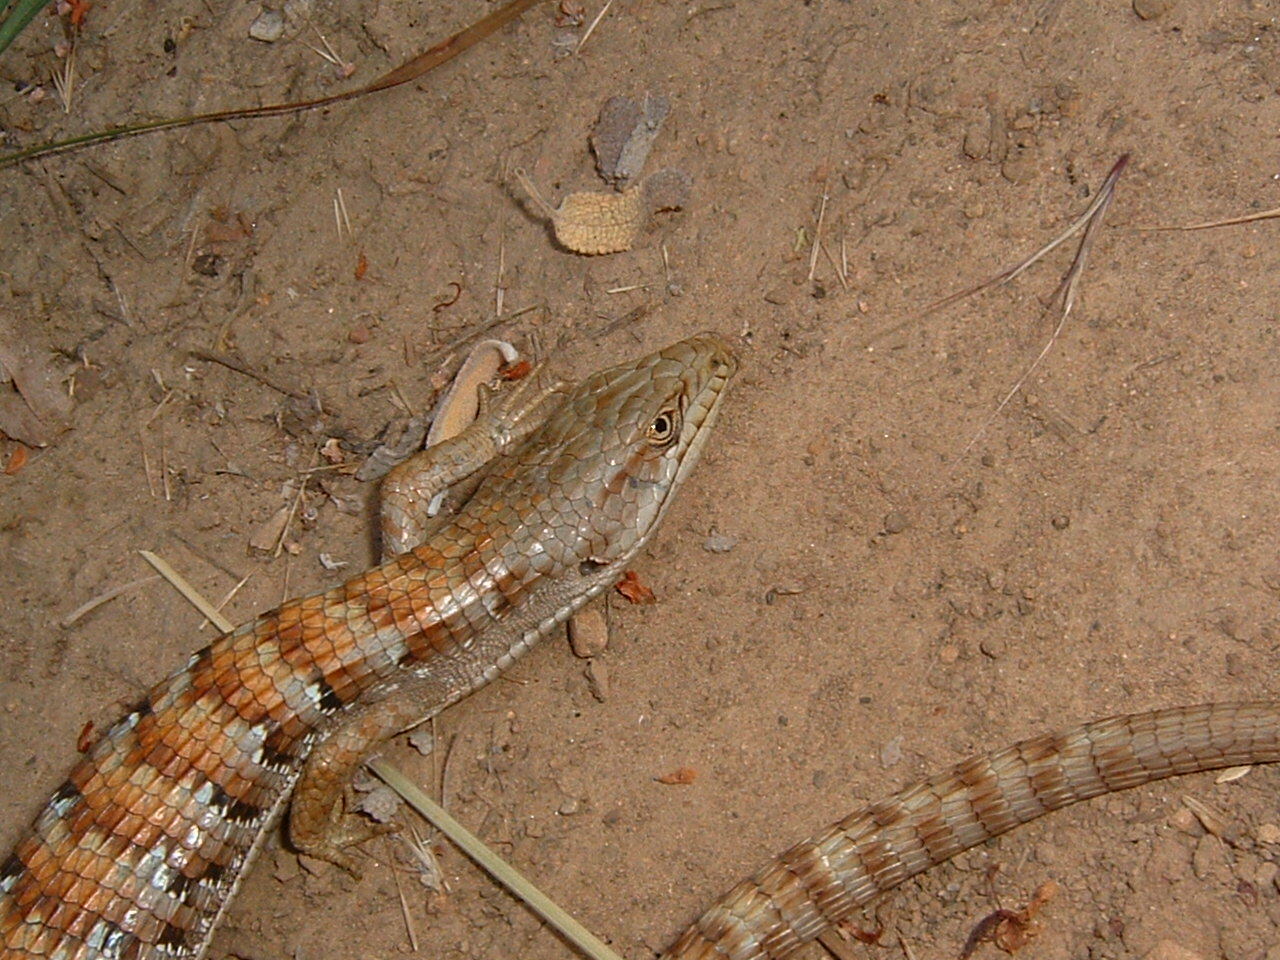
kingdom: Animalia
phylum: Chordata
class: Squamata
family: Anguidae
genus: Elgaria
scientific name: Elgaria multicarinata
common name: Southern alligator lizard
